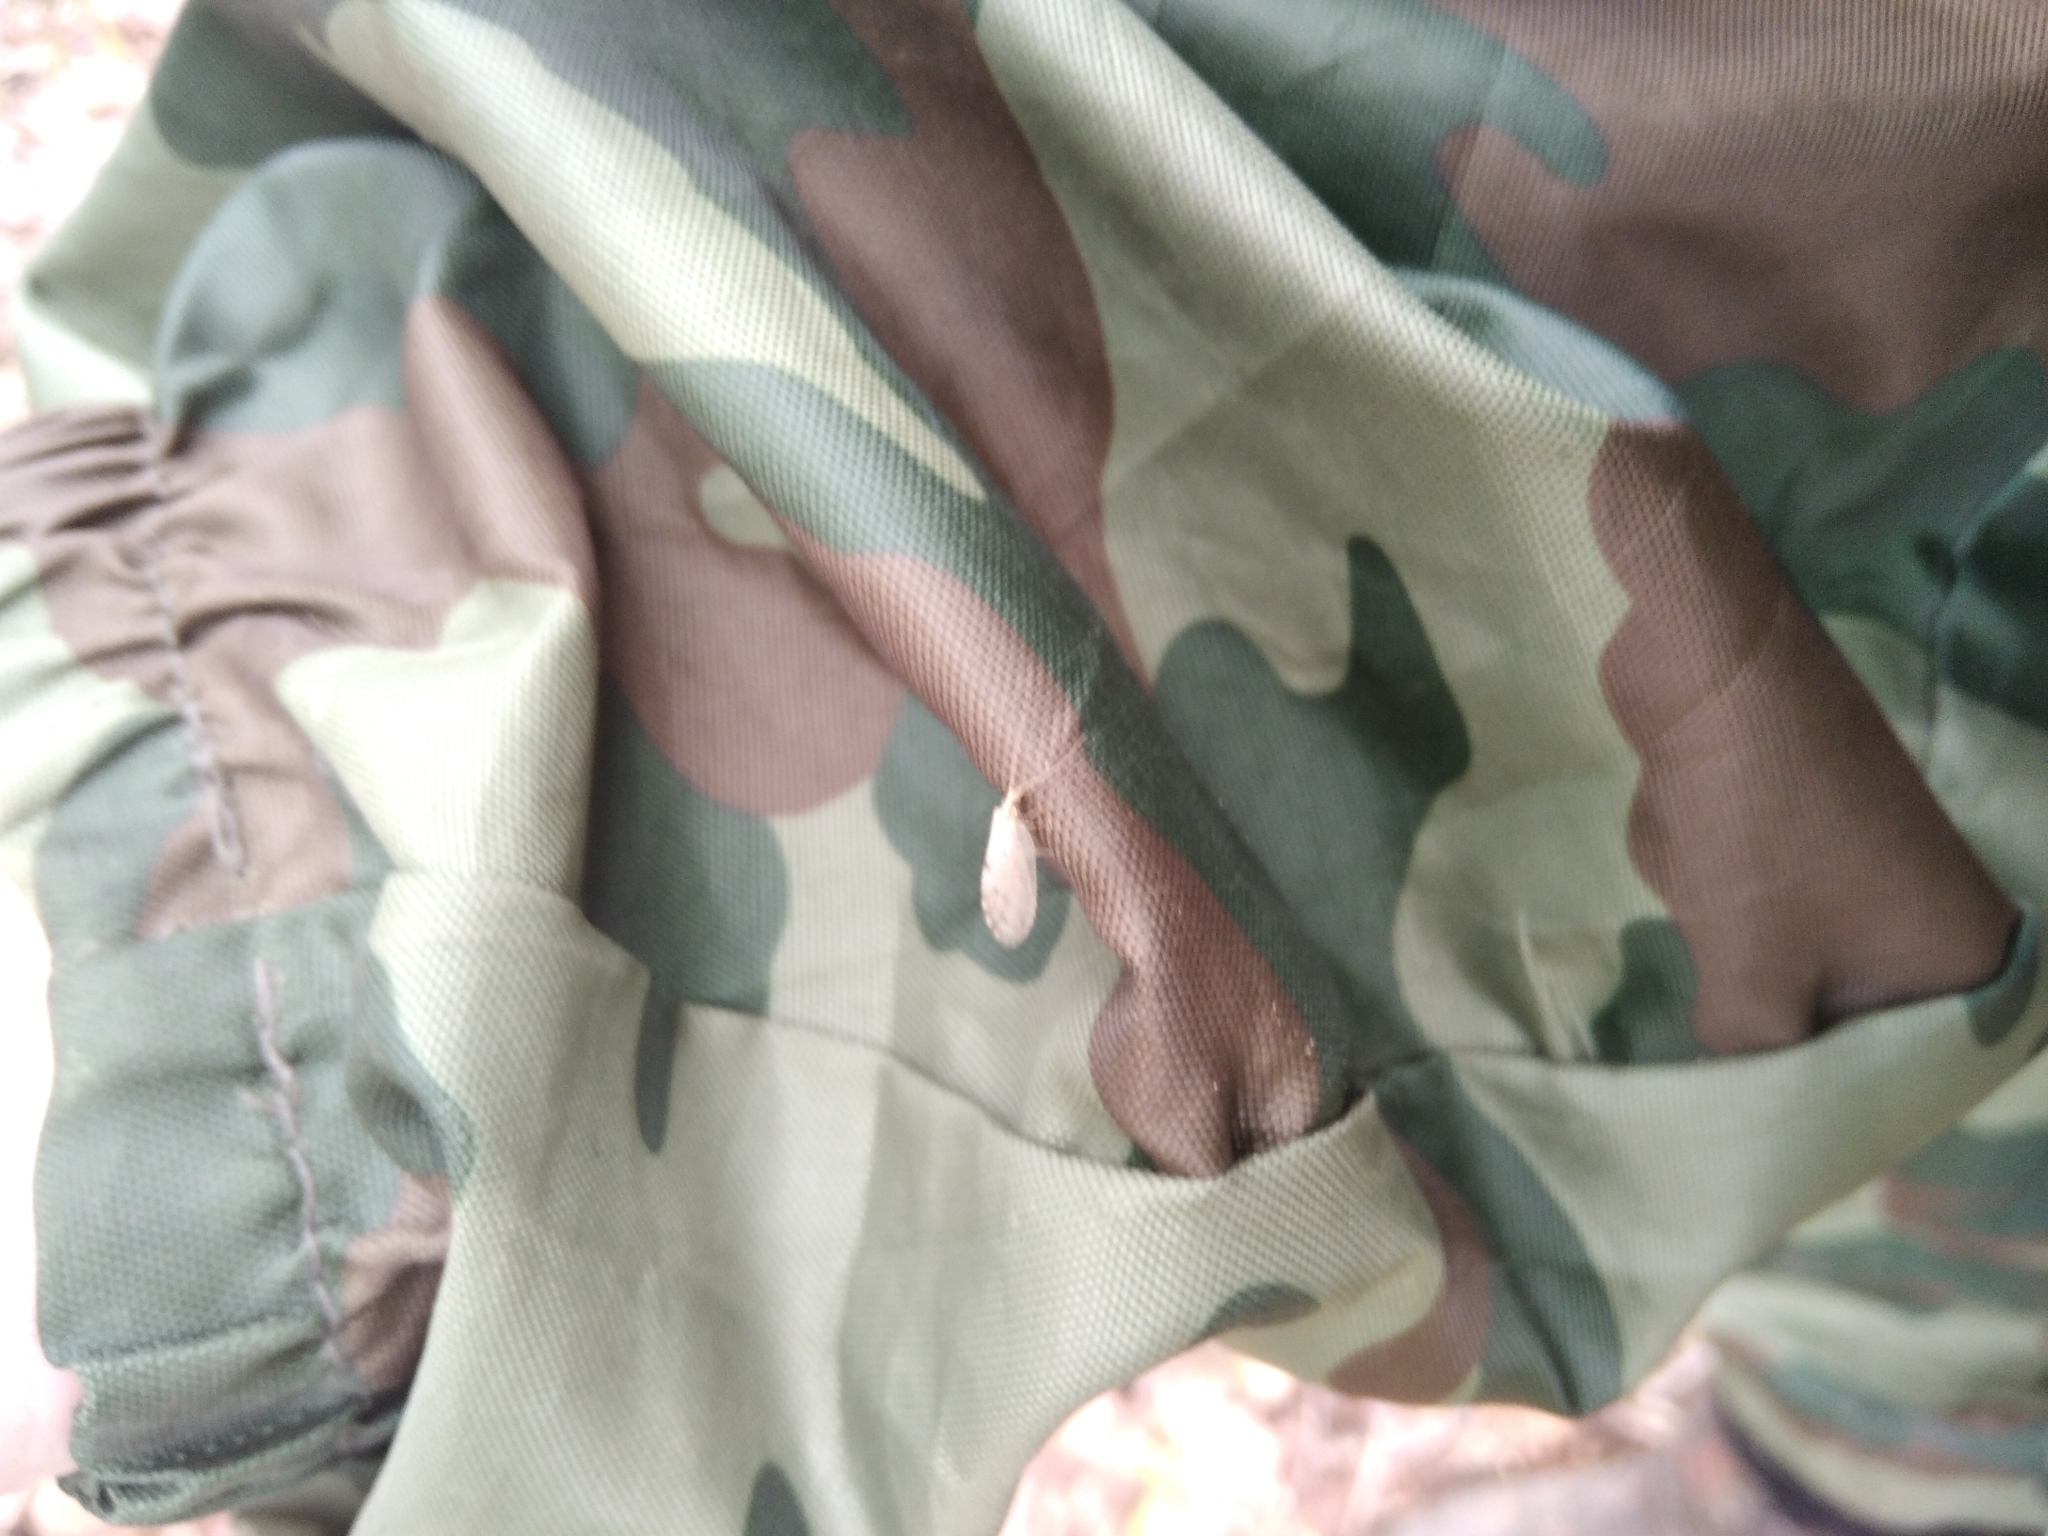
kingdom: Animalia
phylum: Arthropoda
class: Insecta
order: Neuroptera
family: Hemerobiidae
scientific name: Hemerobiidae
